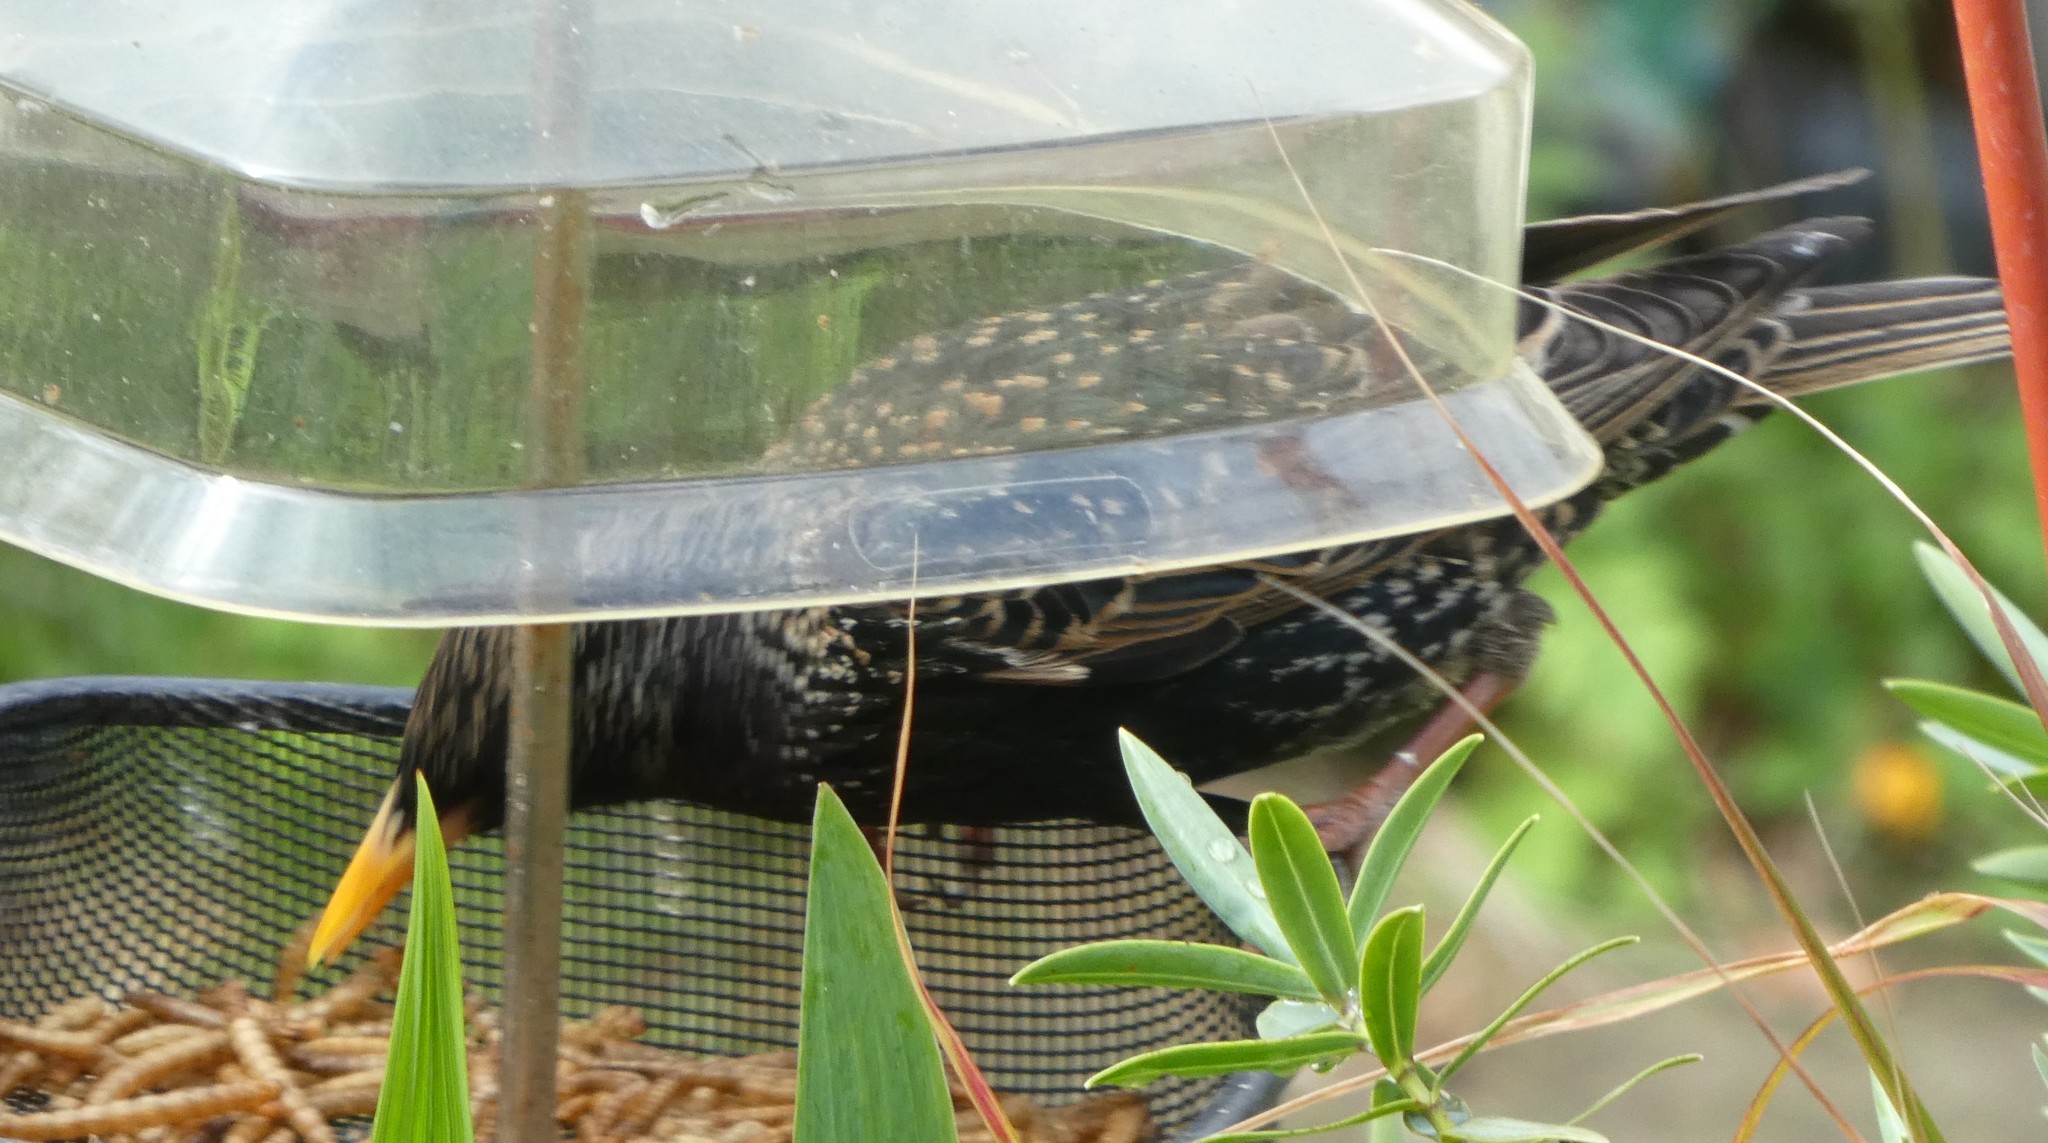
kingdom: Animalia
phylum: Chordata
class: Aves
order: Passeriformes
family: Sturnidae
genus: Sturnus
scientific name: Sturnus vulgaris
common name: Common starling
